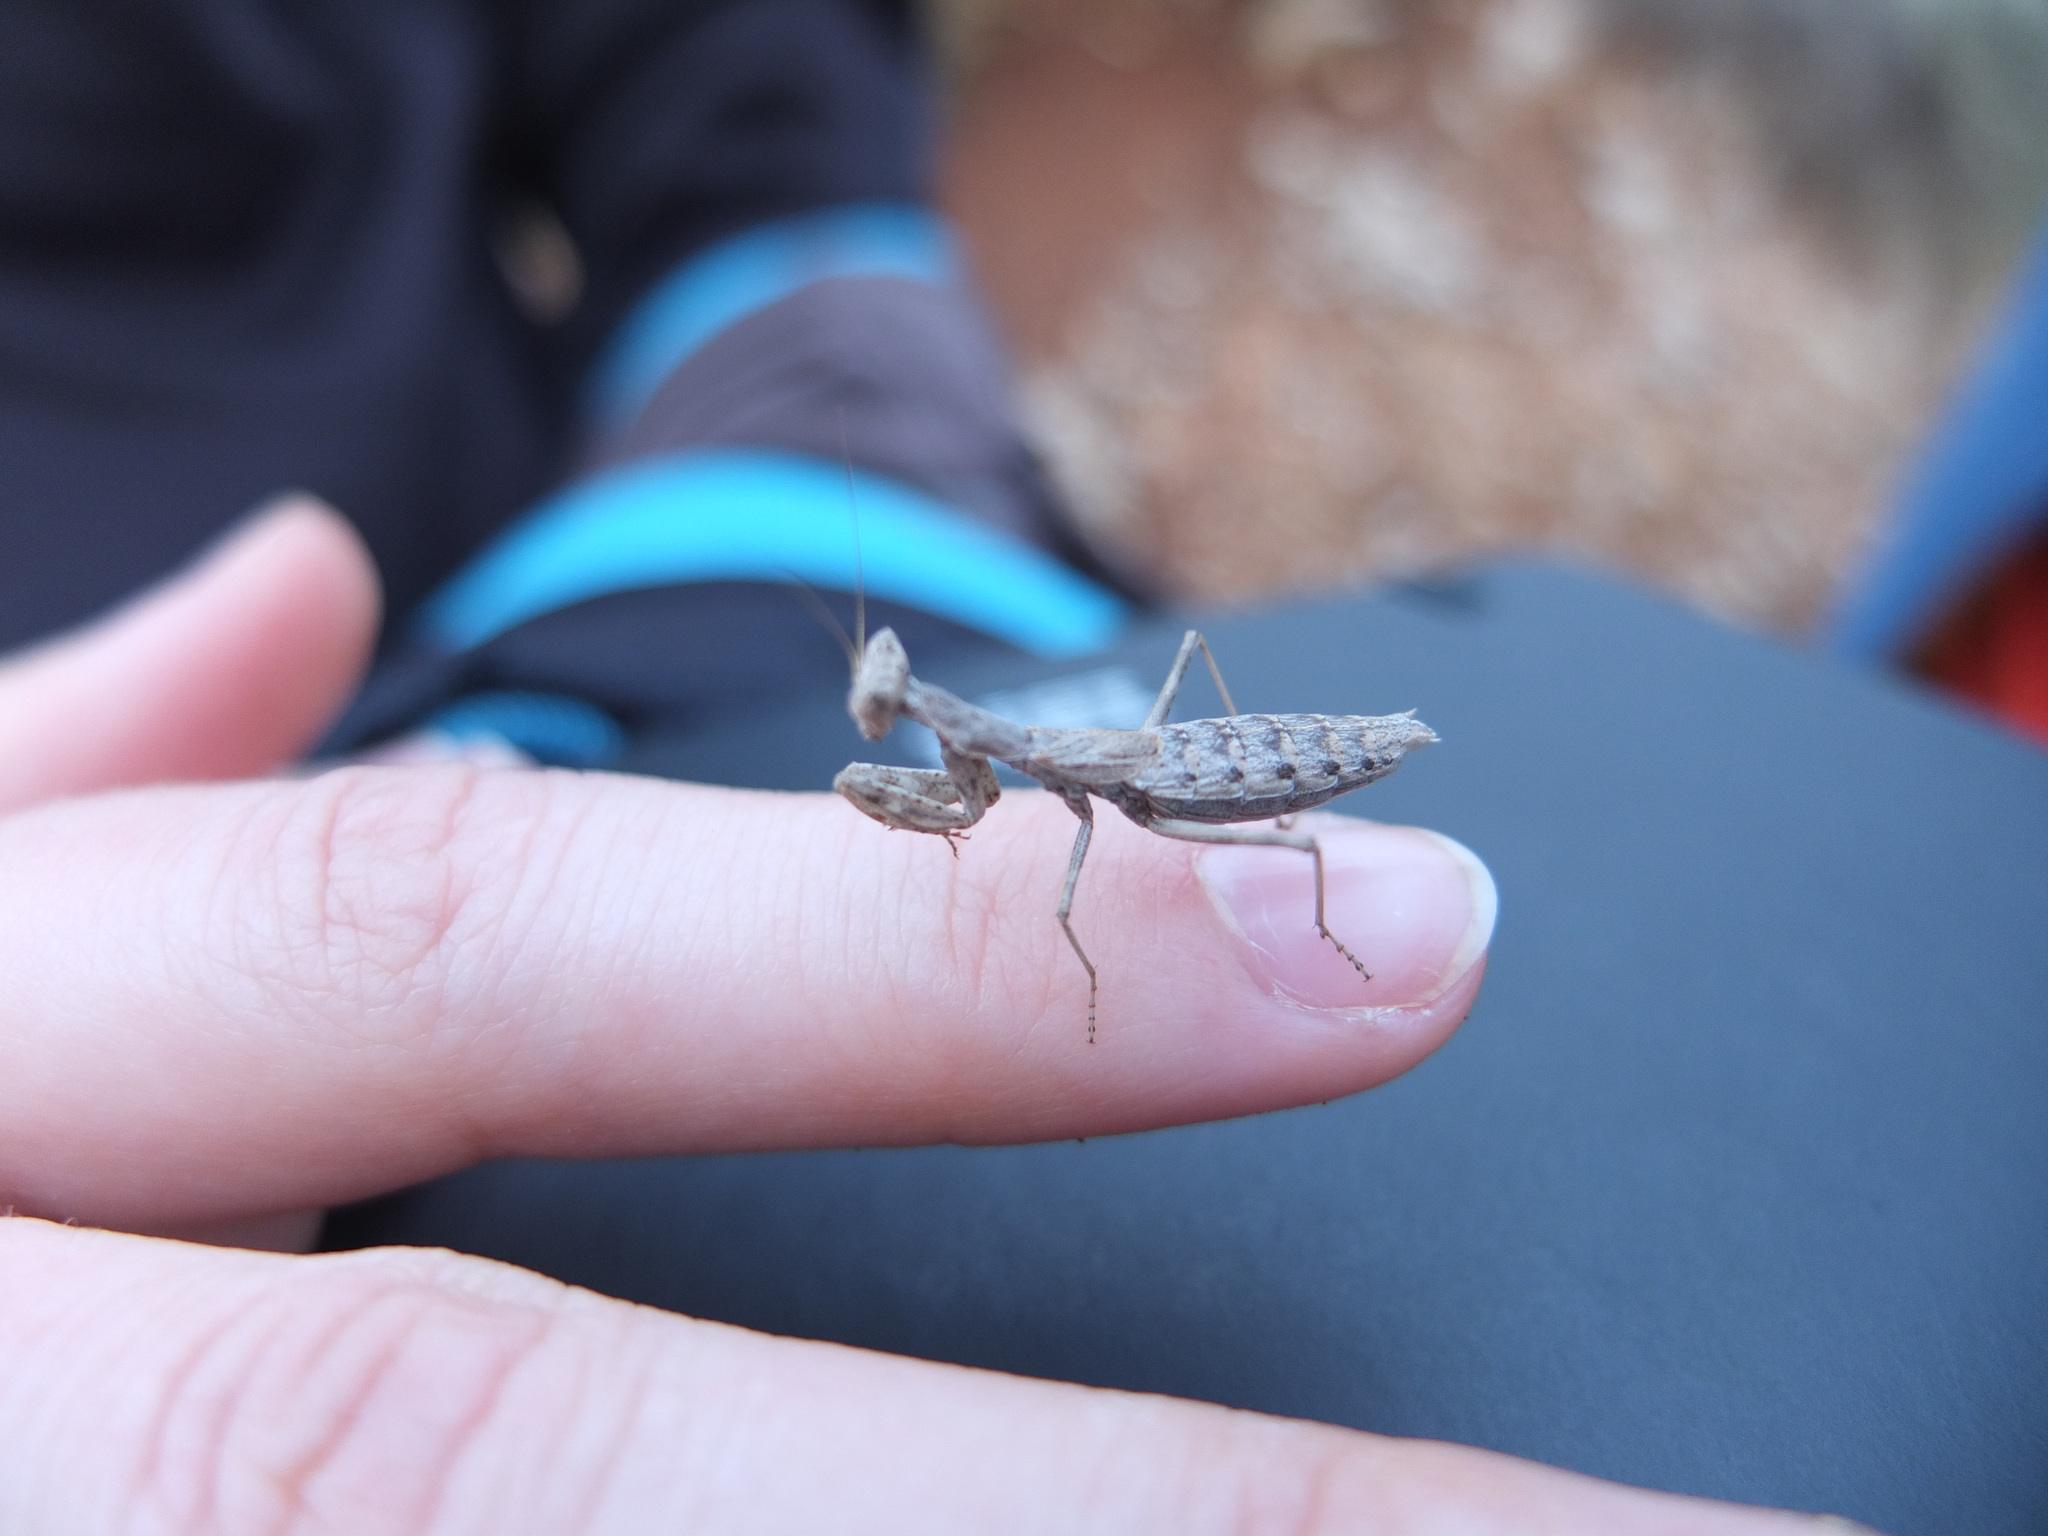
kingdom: Animalia
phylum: Arthropoda
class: Insecta
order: Mantodea
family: Amelidae
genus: Ameles
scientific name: Ameles heldreichi
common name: Heldreich's dwarf mantis
